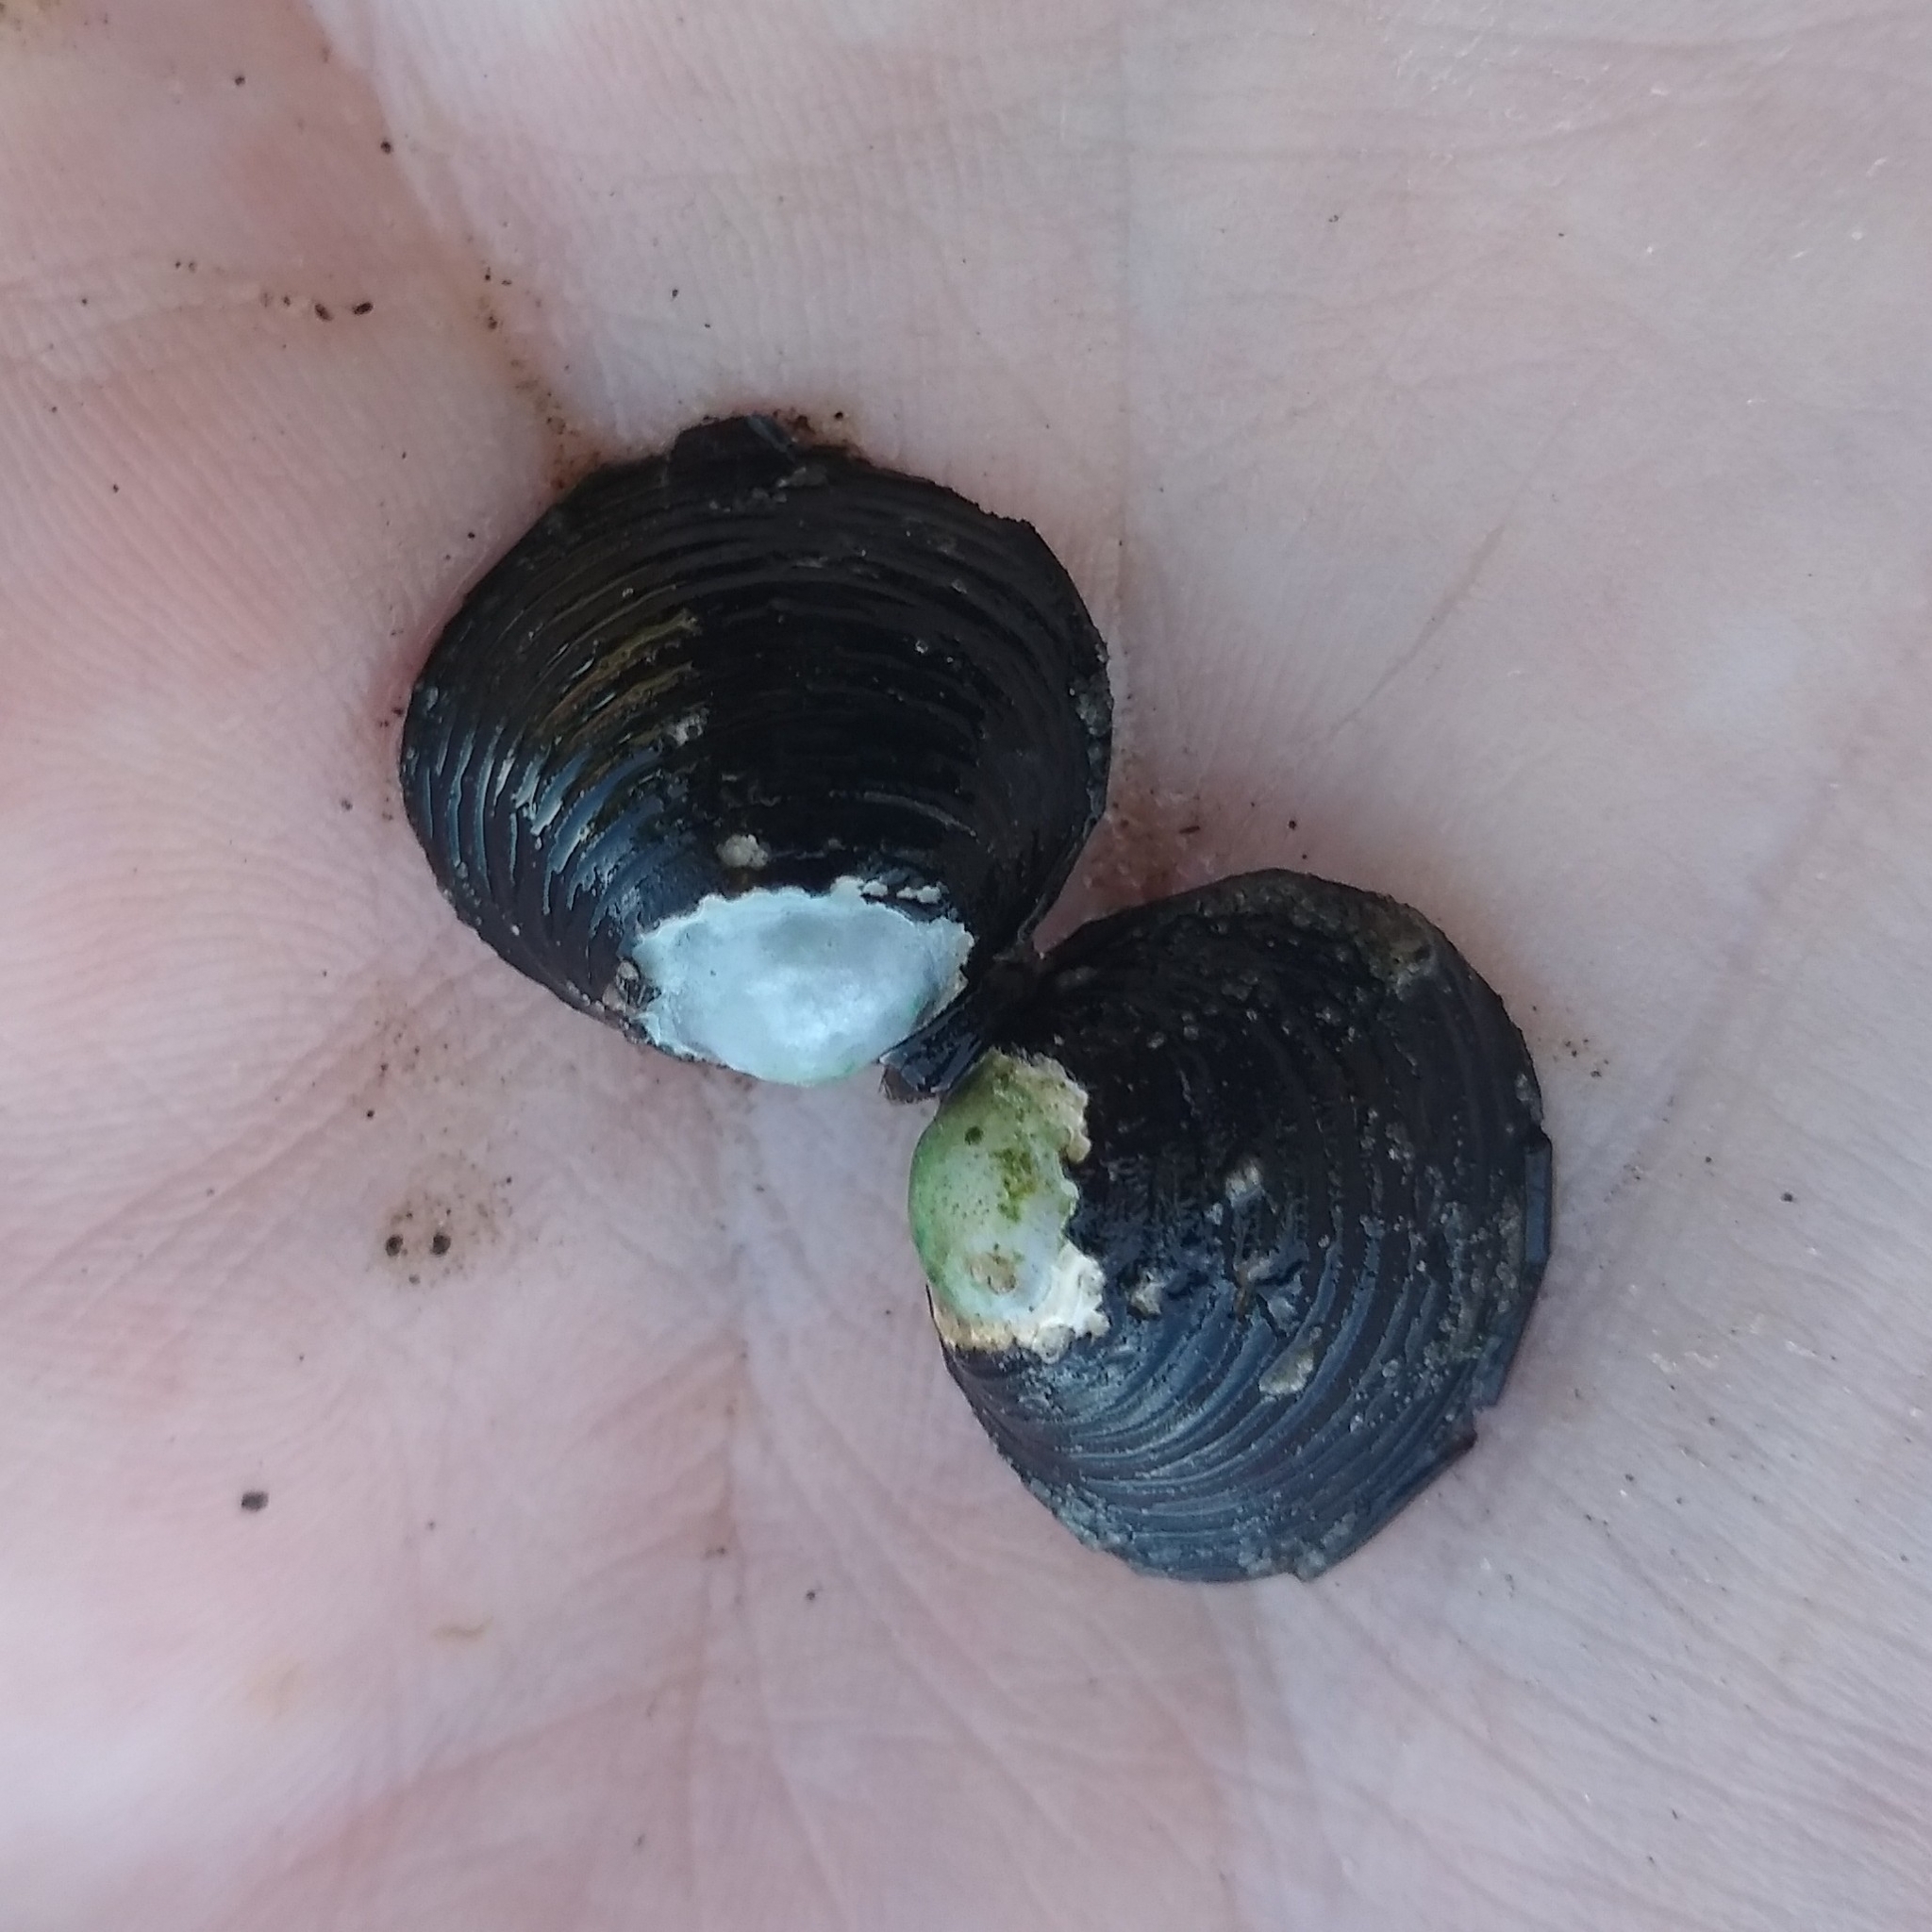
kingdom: Animalia
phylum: Mollusca
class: Bivalvia
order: Venerida
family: Cyrenidae
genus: Corbicula
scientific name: Corbicula fluminea
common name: Asian clam
